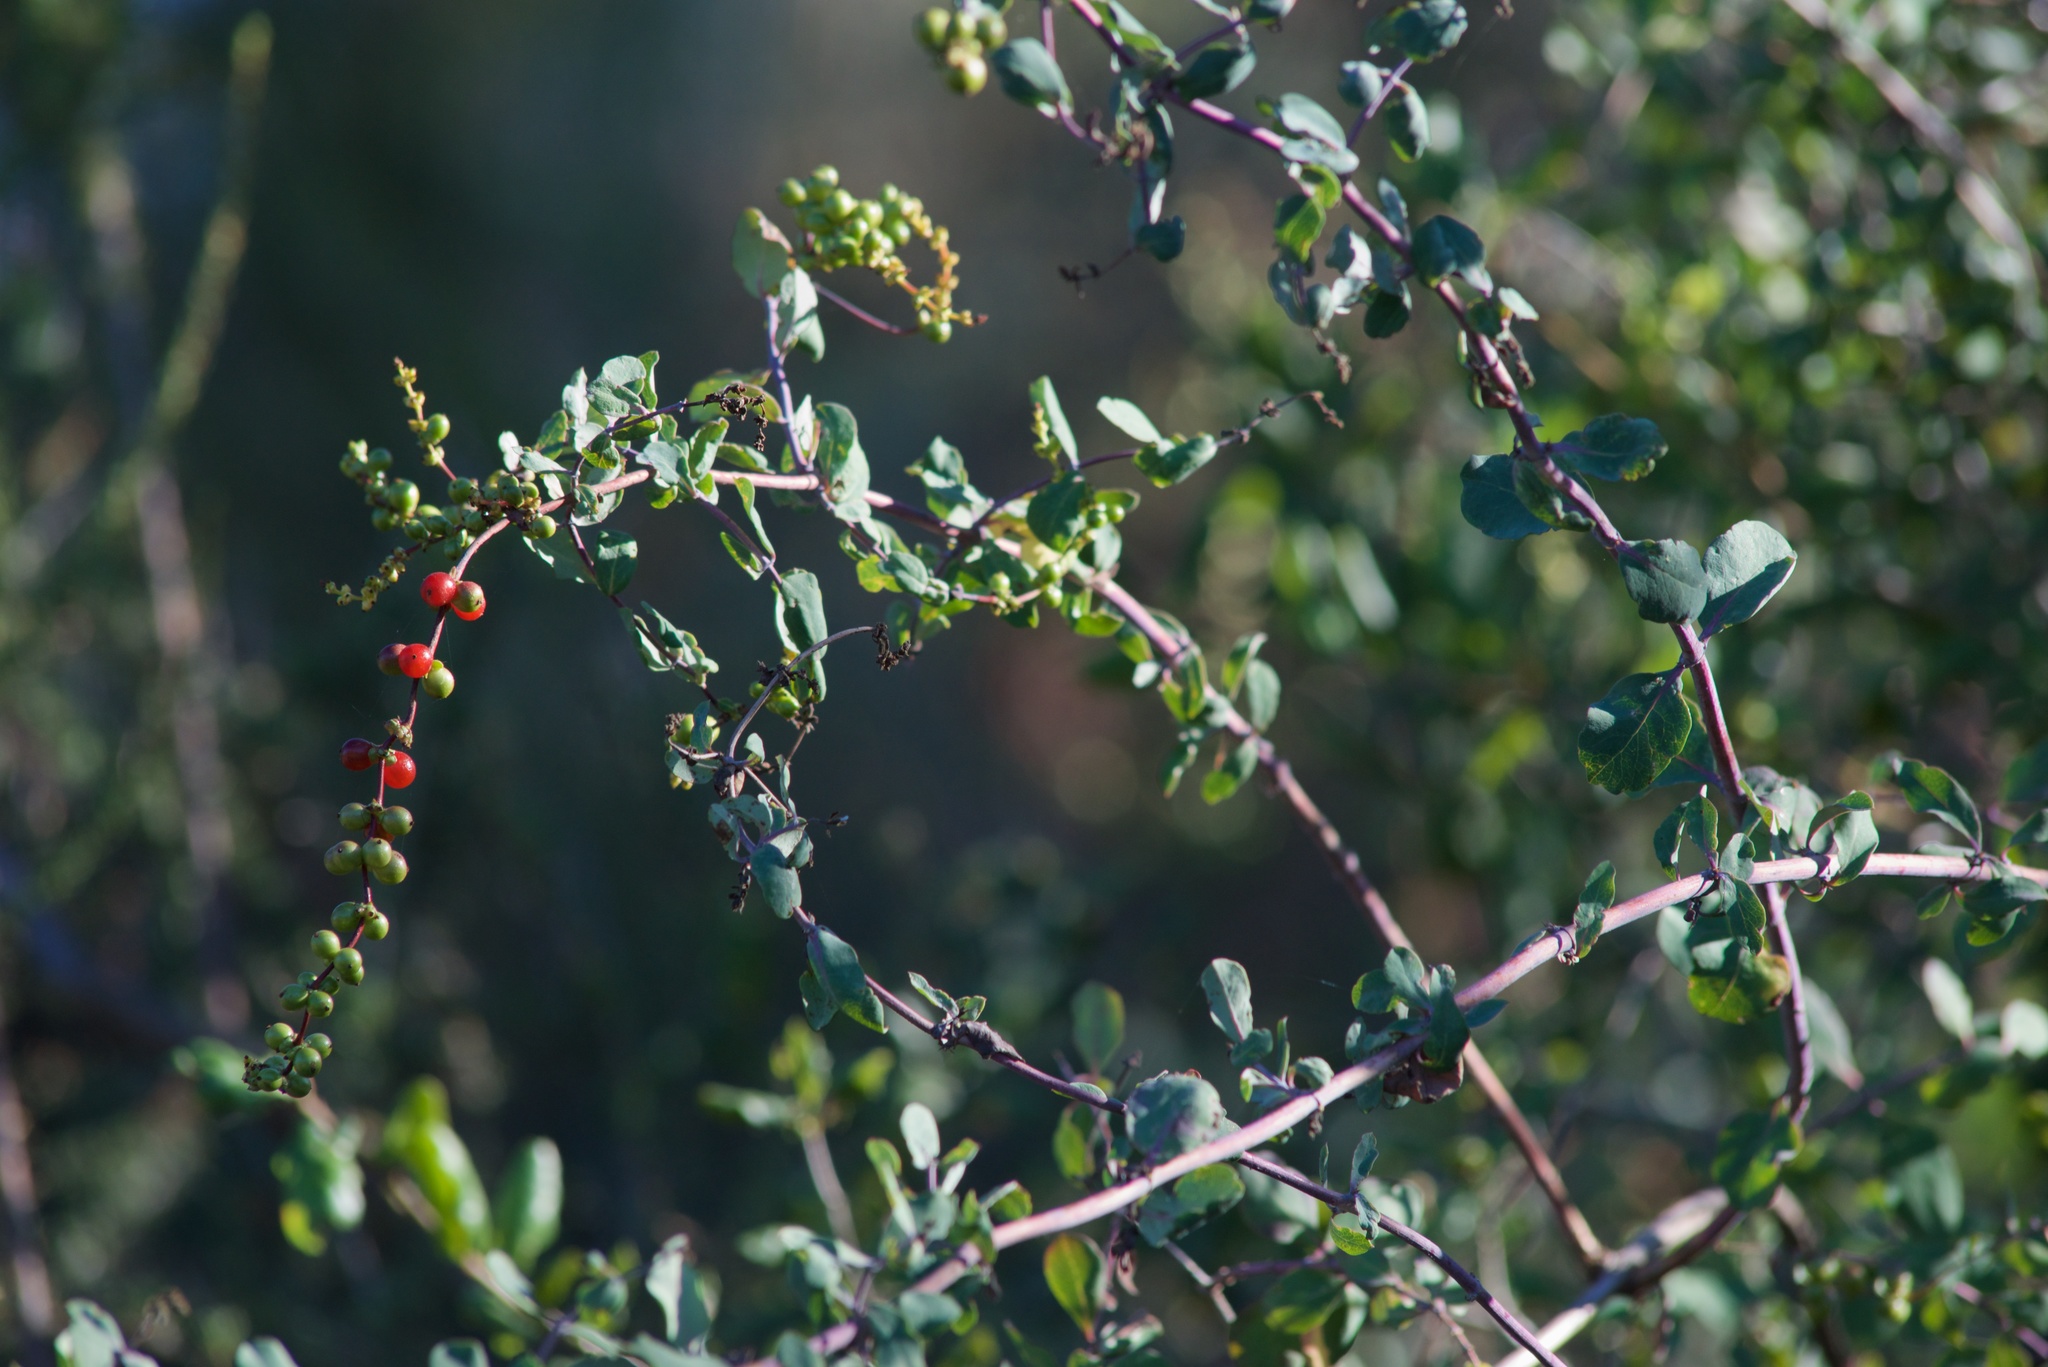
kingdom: Plantae
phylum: Tracheophyta
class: Magnoliopsida
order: Dipsacales
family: Caprifoliaceae
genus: Lonicera
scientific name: Lonicera subspicata
